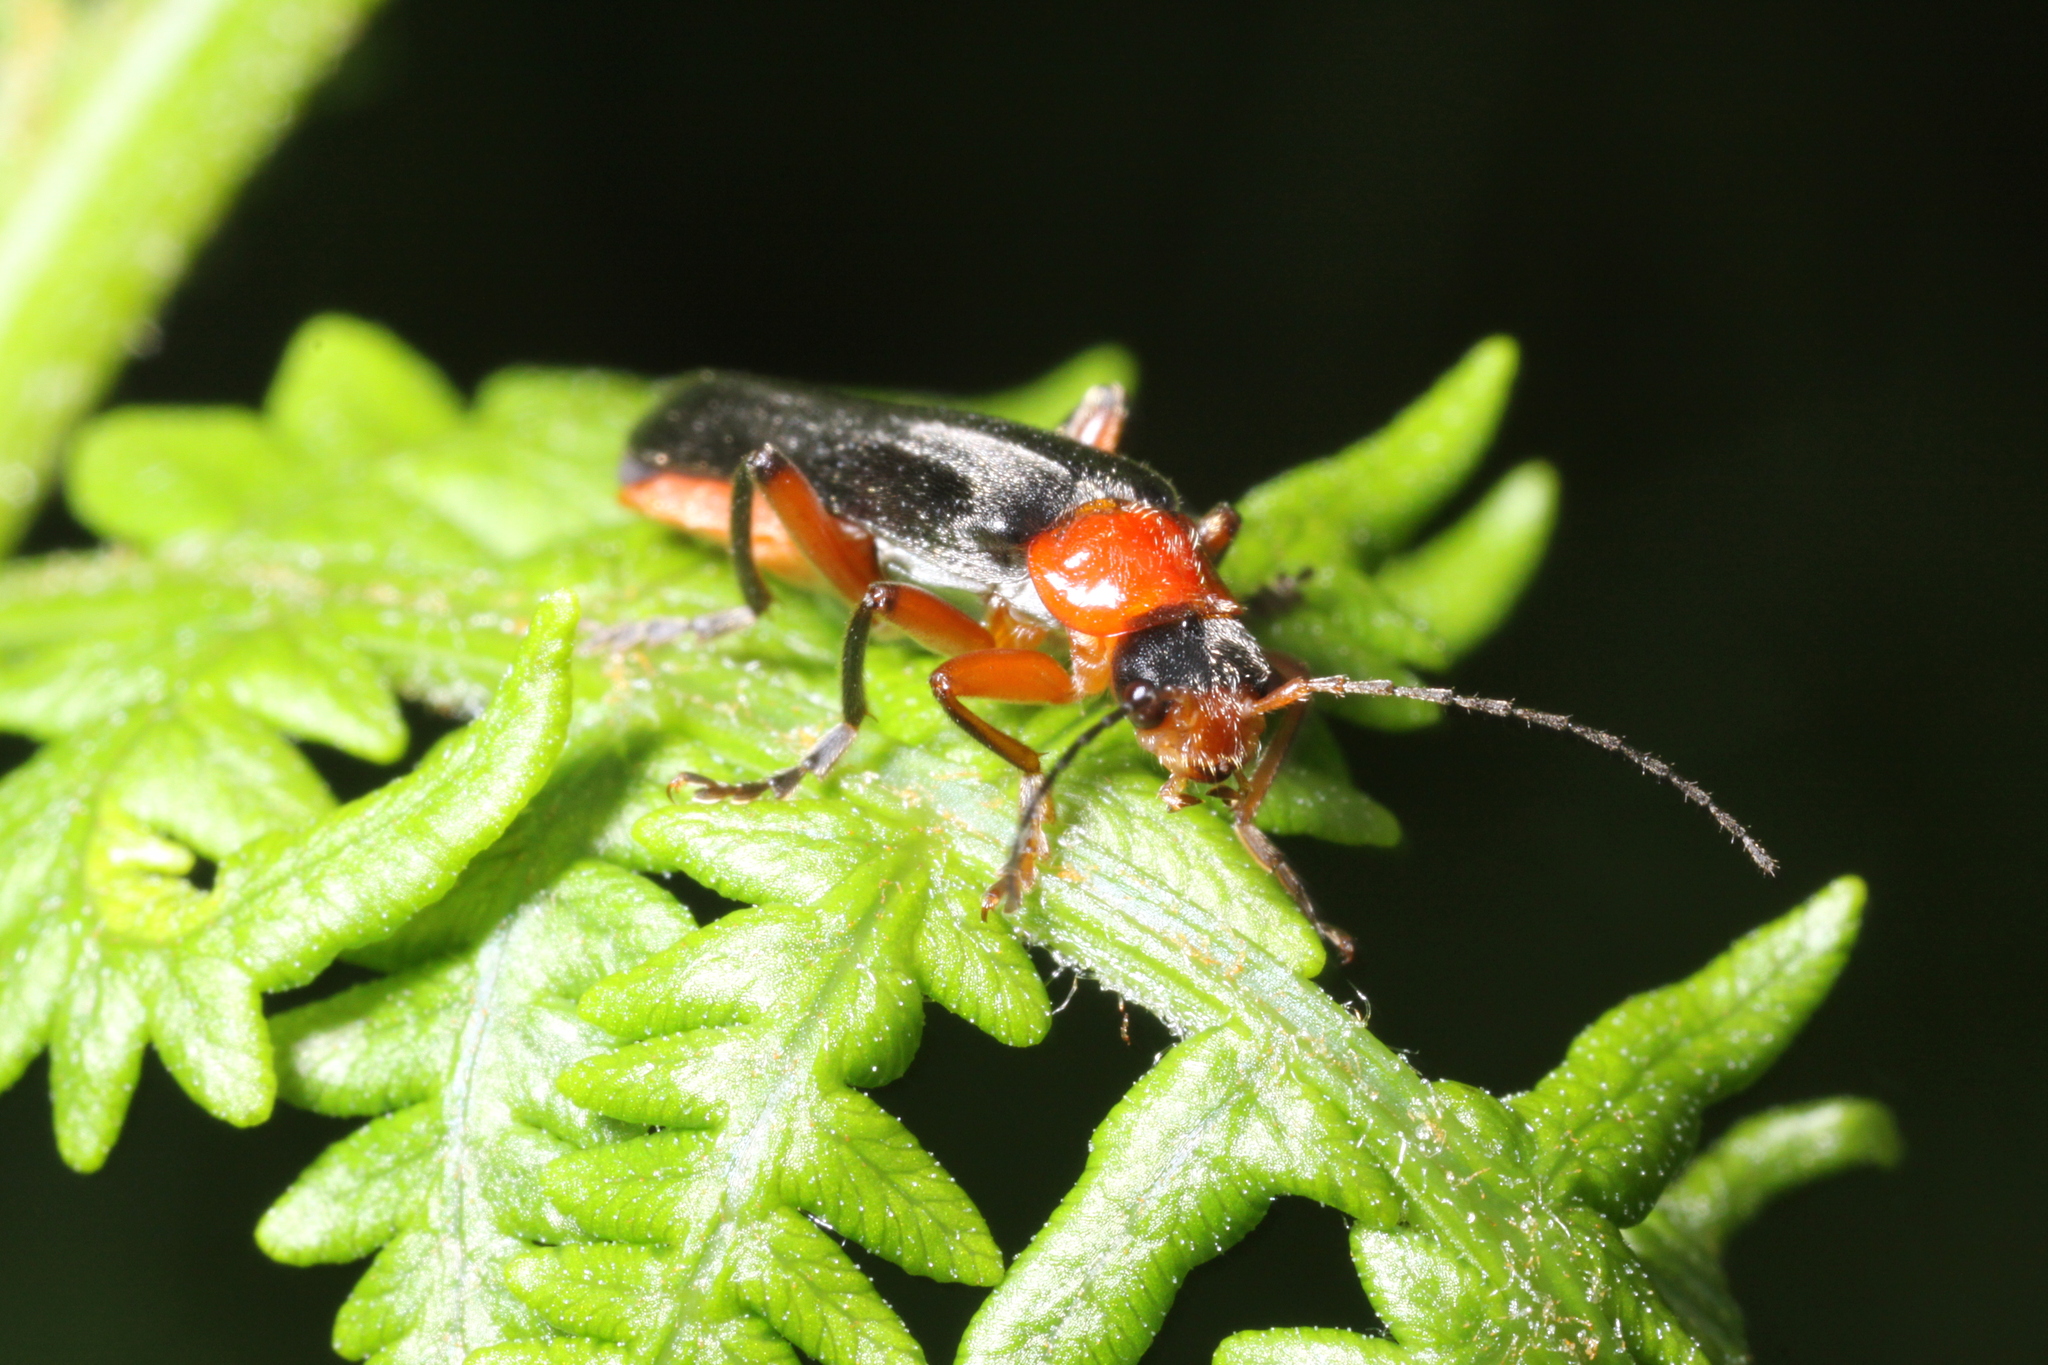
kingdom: Animalia
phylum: Arthropoda
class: Insecta
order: Coleoptera
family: Cantharidae
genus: Cantharis
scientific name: Cantharis pellucida
